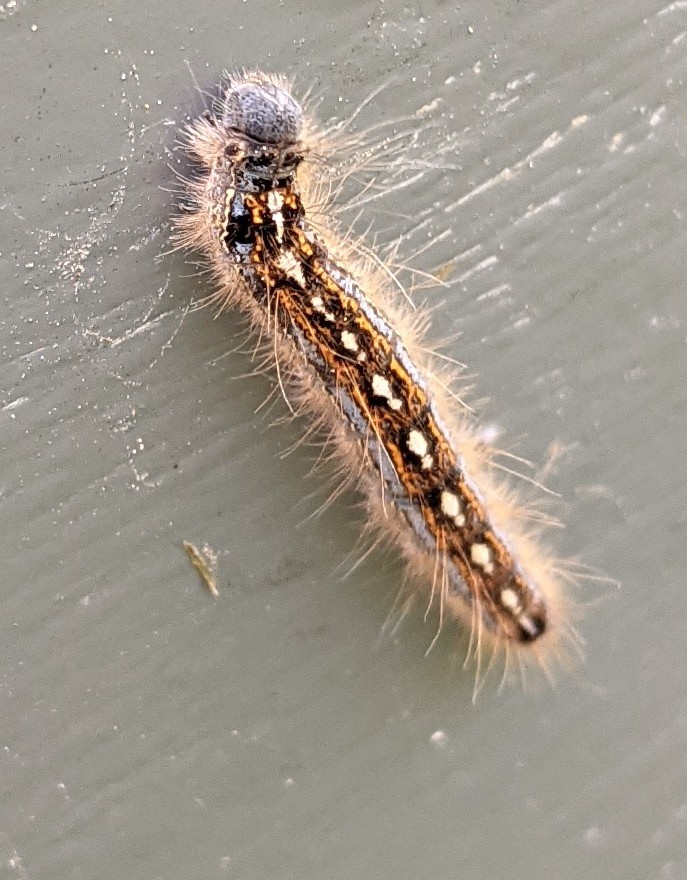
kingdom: Animalia
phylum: Arthropoda
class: Insecta
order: Lepidoptera
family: Lasiocampidae
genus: Malacosoma
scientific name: Malacosoma disstria
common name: Forest tent caterpillar
